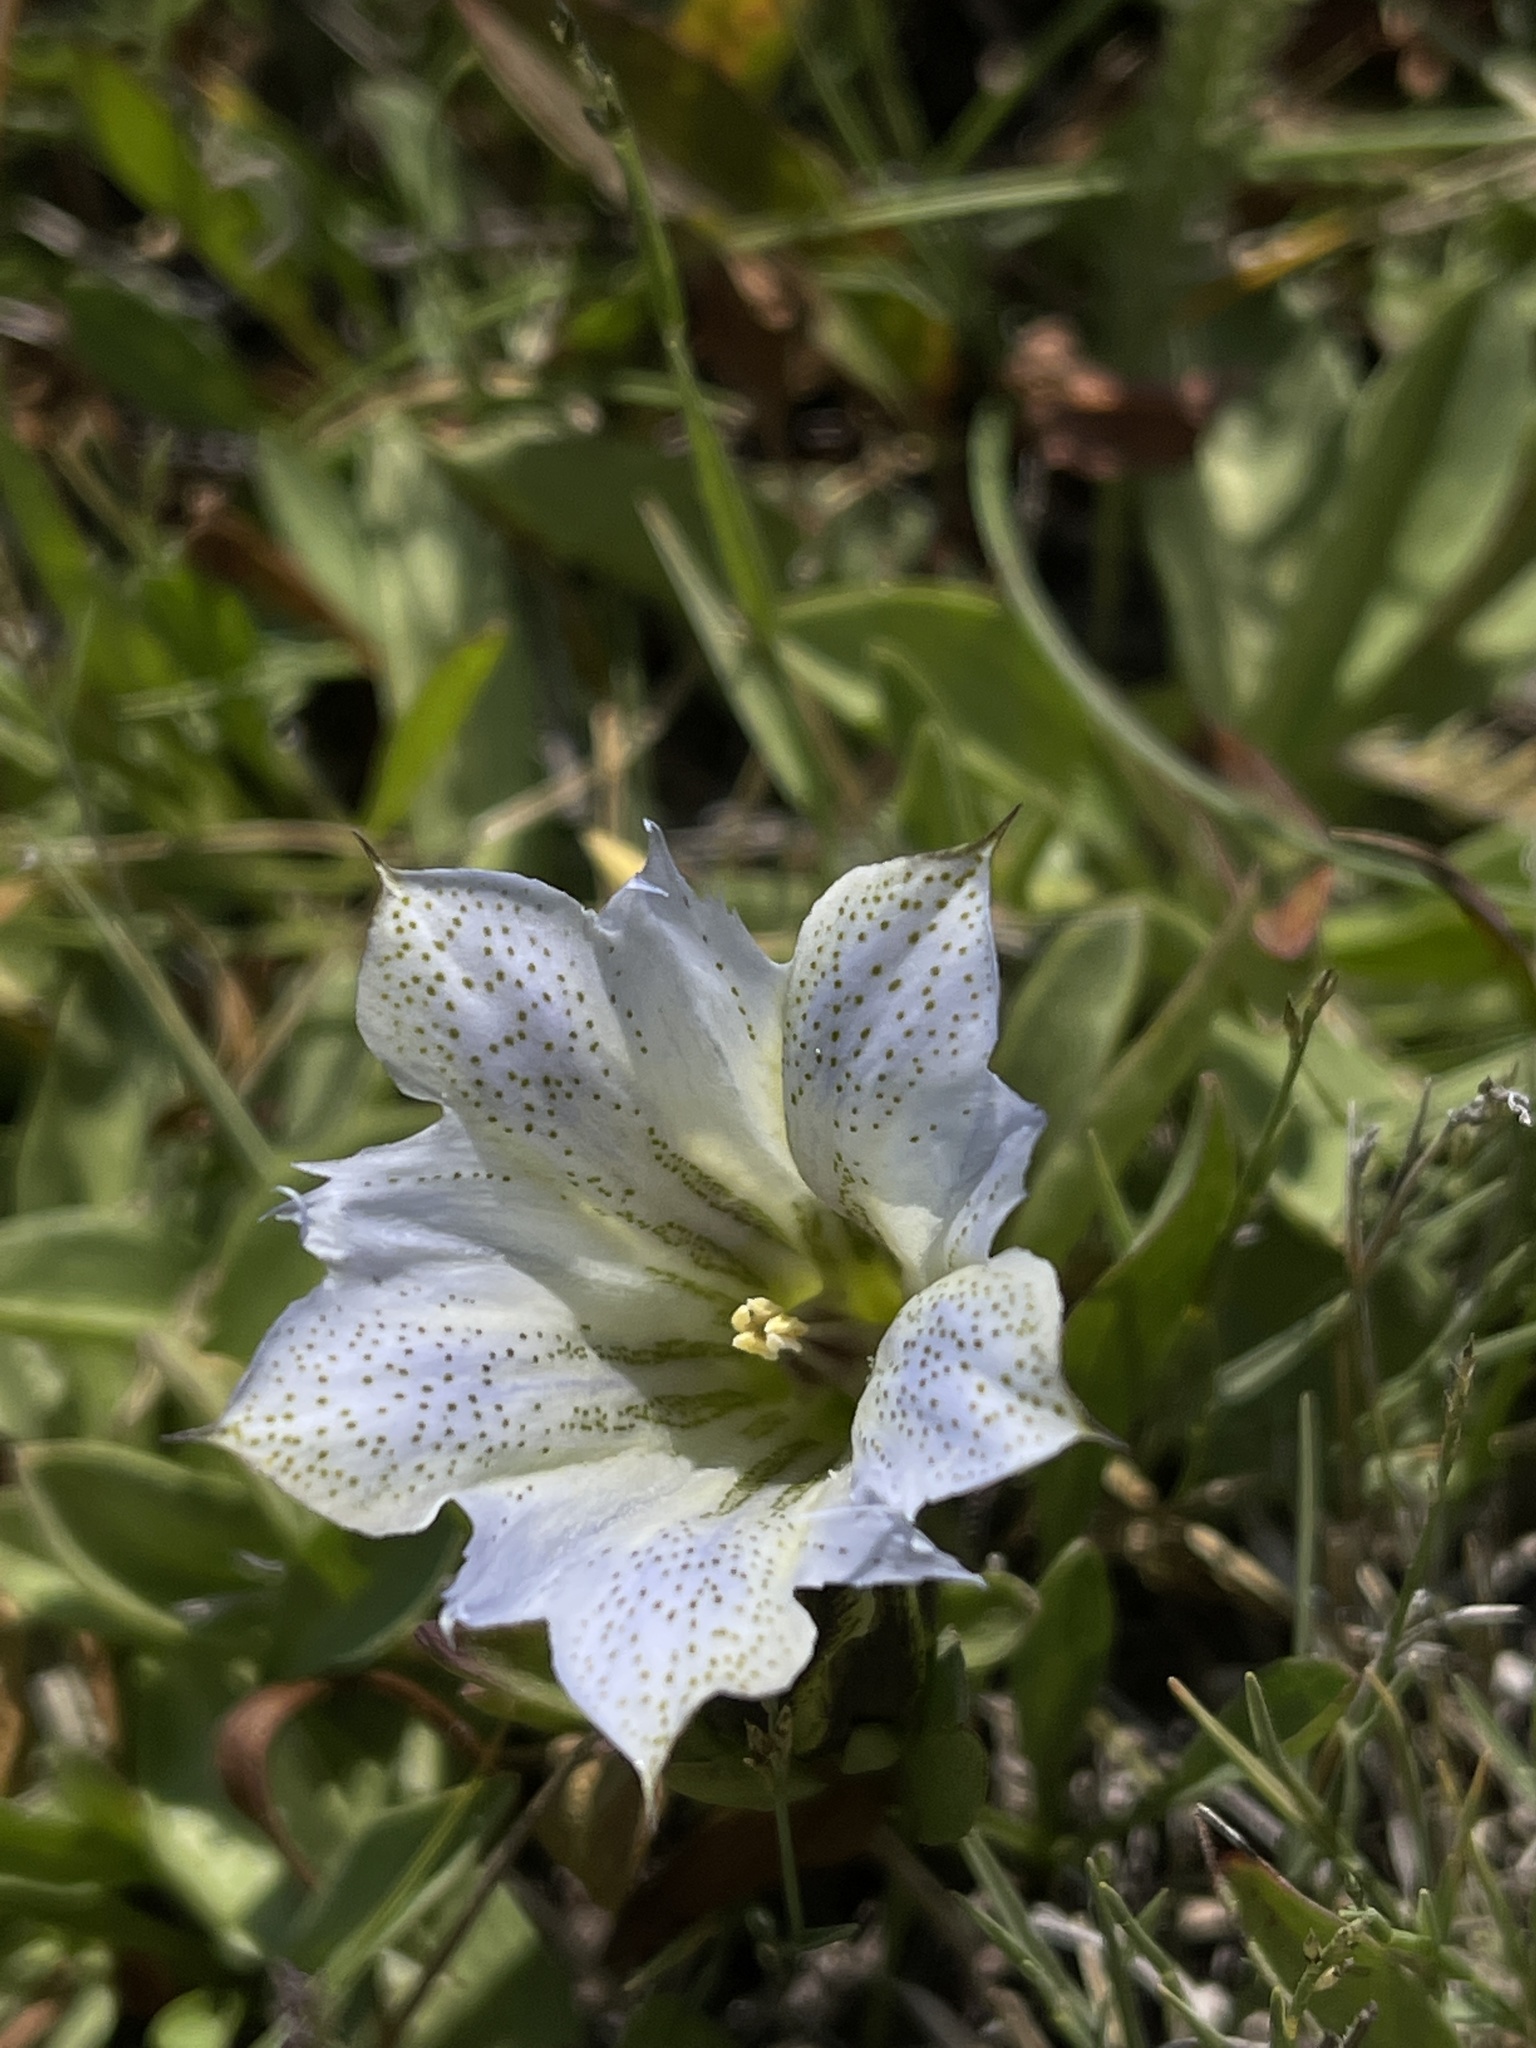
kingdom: Plantae
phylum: Tracheophyta
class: Magnoliopsida
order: Gentianales
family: Gentianaceae
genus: Gentiana
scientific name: Gentiana newberryi
